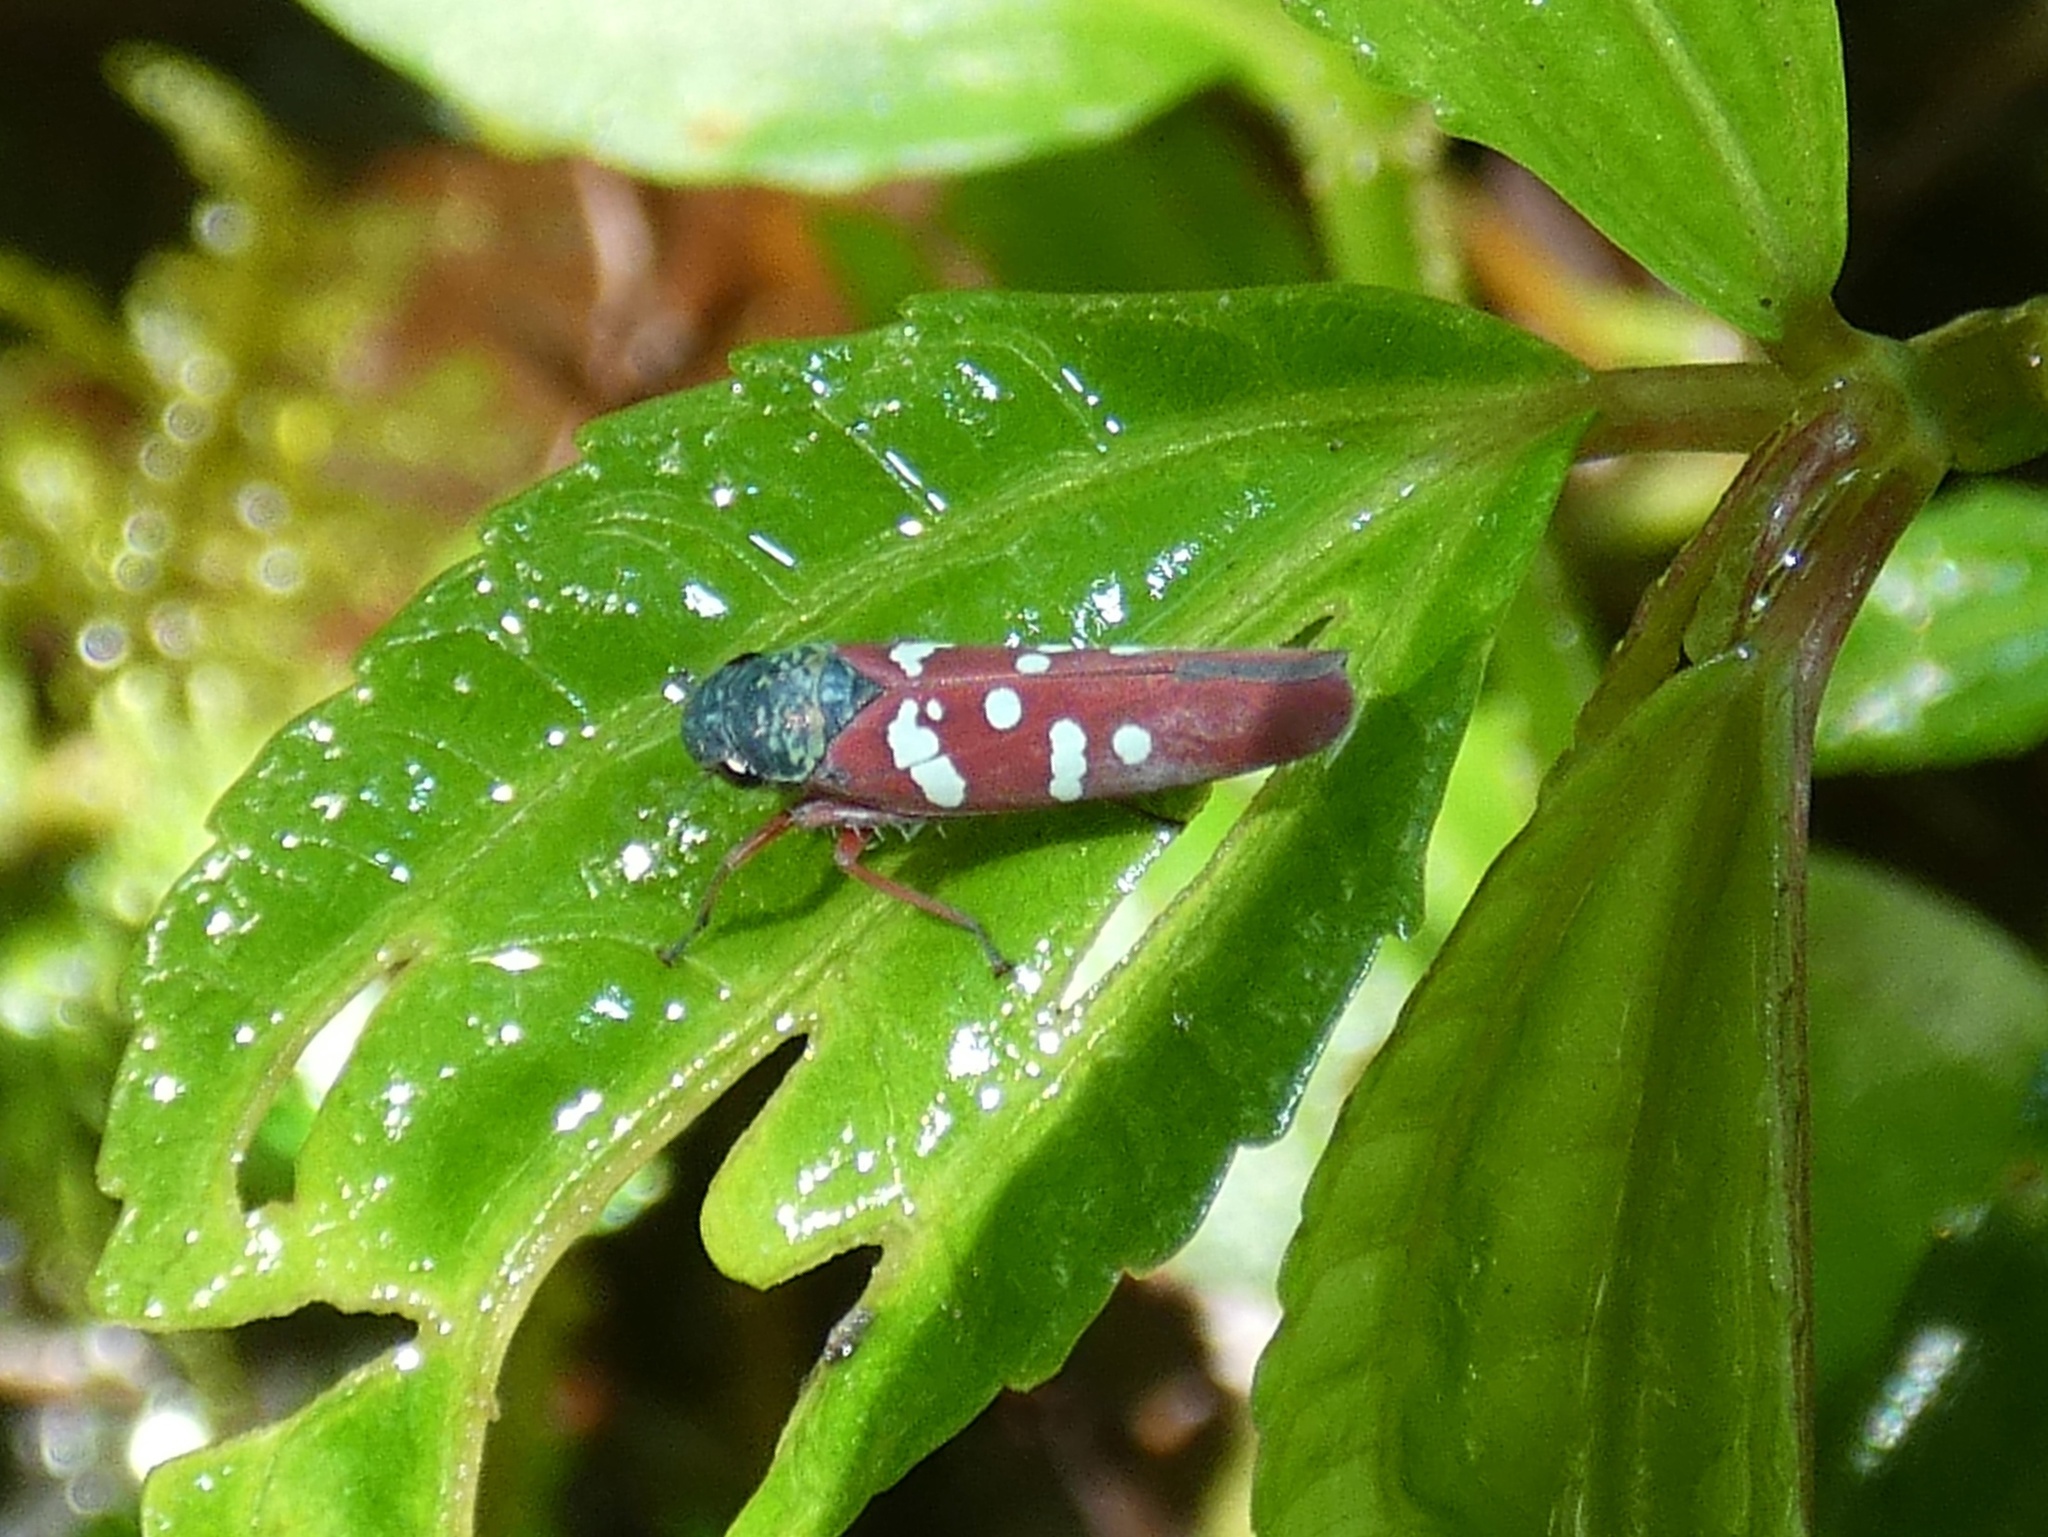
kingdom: Animalia
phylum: Arthropoda
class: Insecta
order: Hemiptera
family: Cicadellidae
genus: Graphocephala
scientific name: Graphocephala albomaculata
